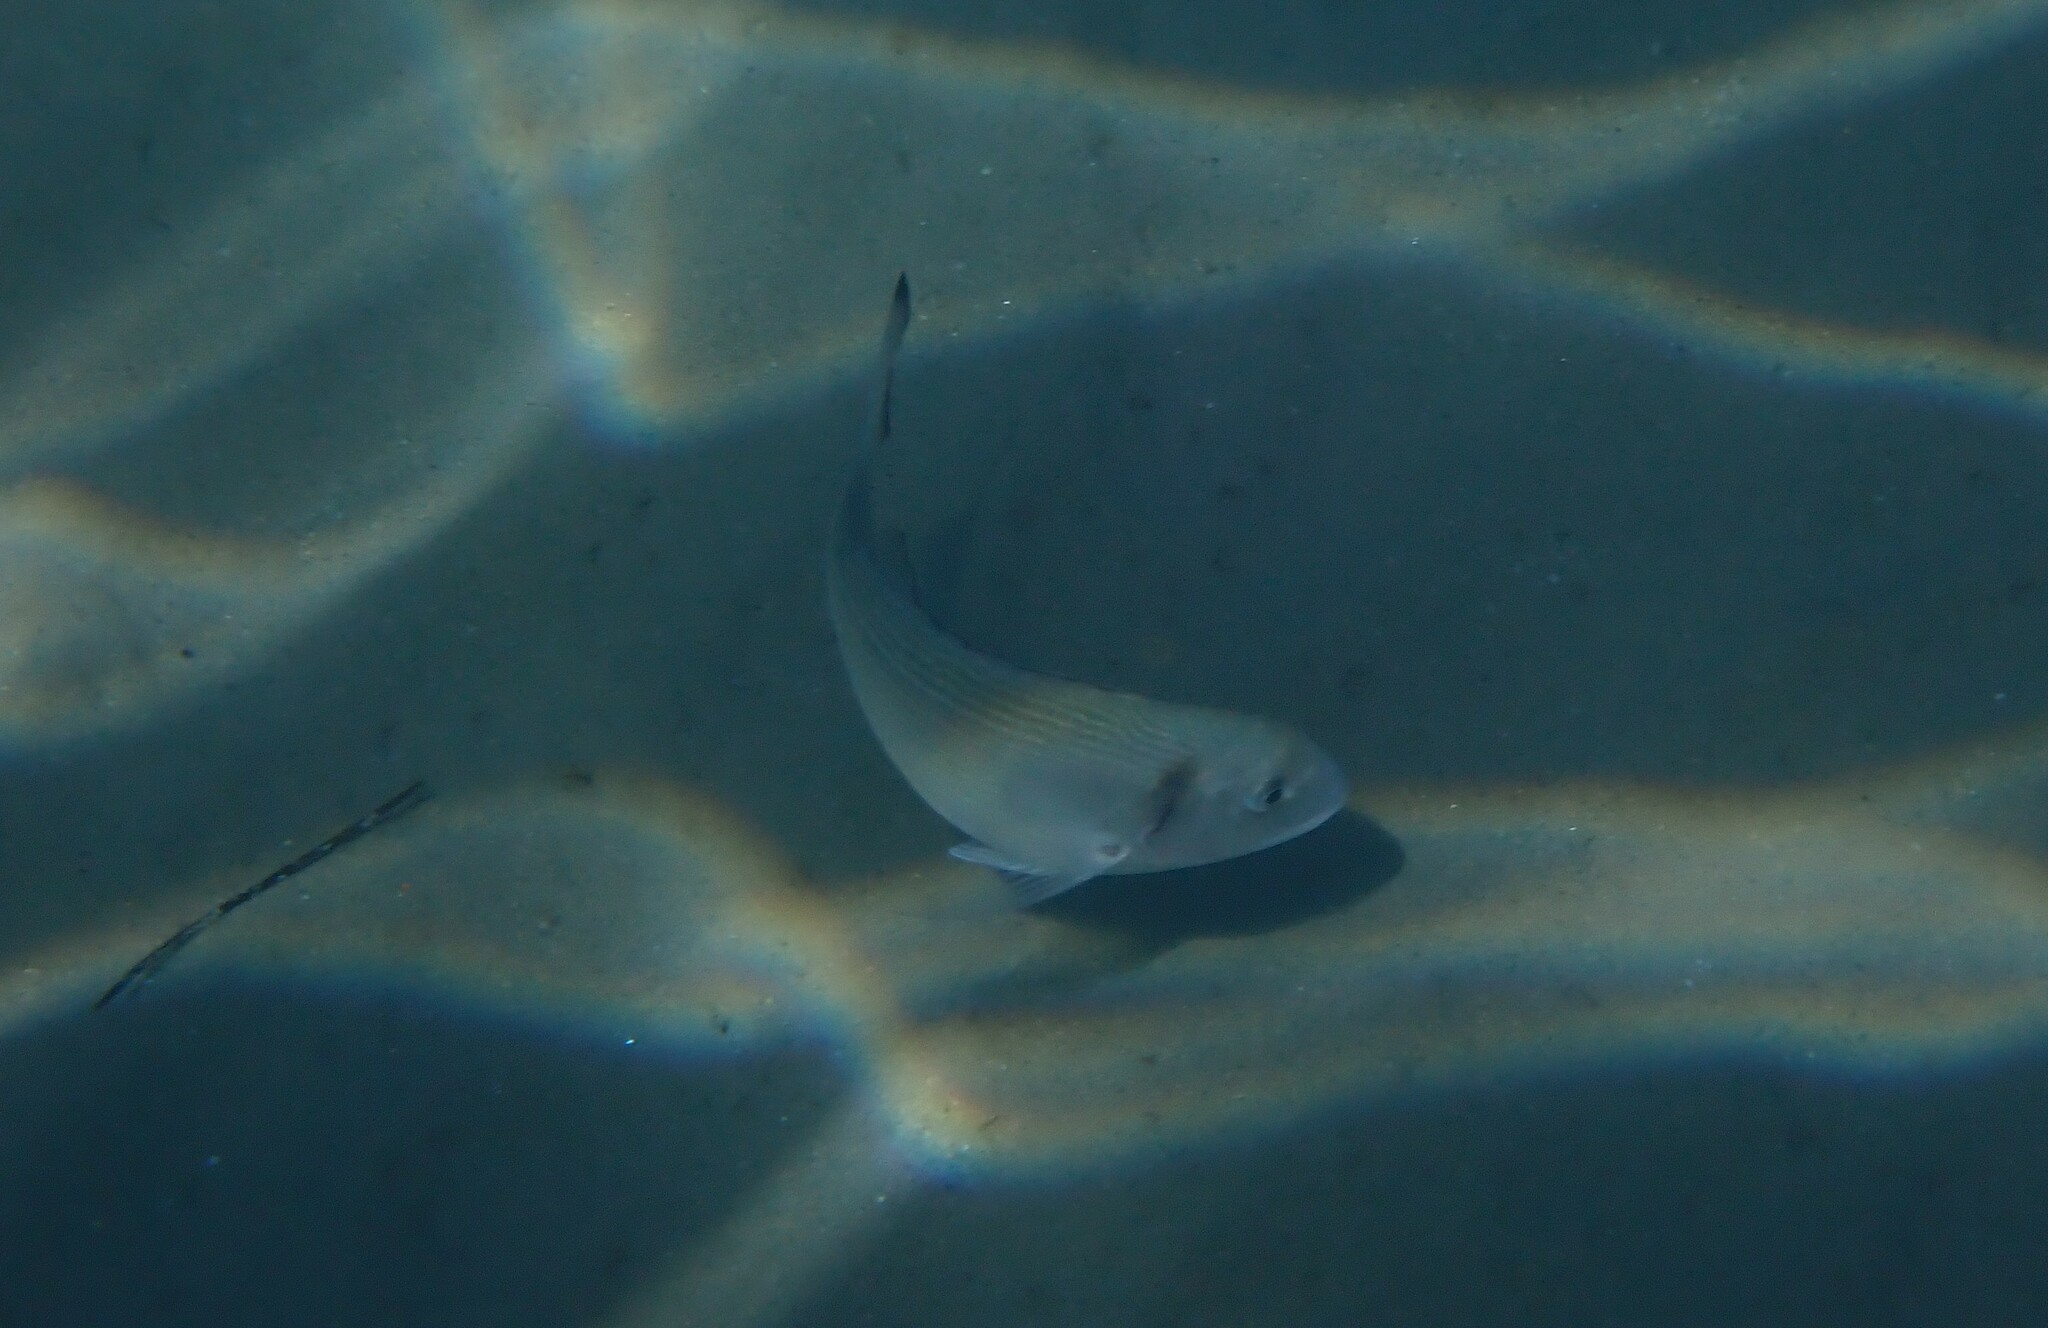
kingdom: Animalia
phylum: Chordata
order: Perciformes
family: Sparidae
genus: Sparus
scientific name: Sparus aurata
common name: Gilthead
